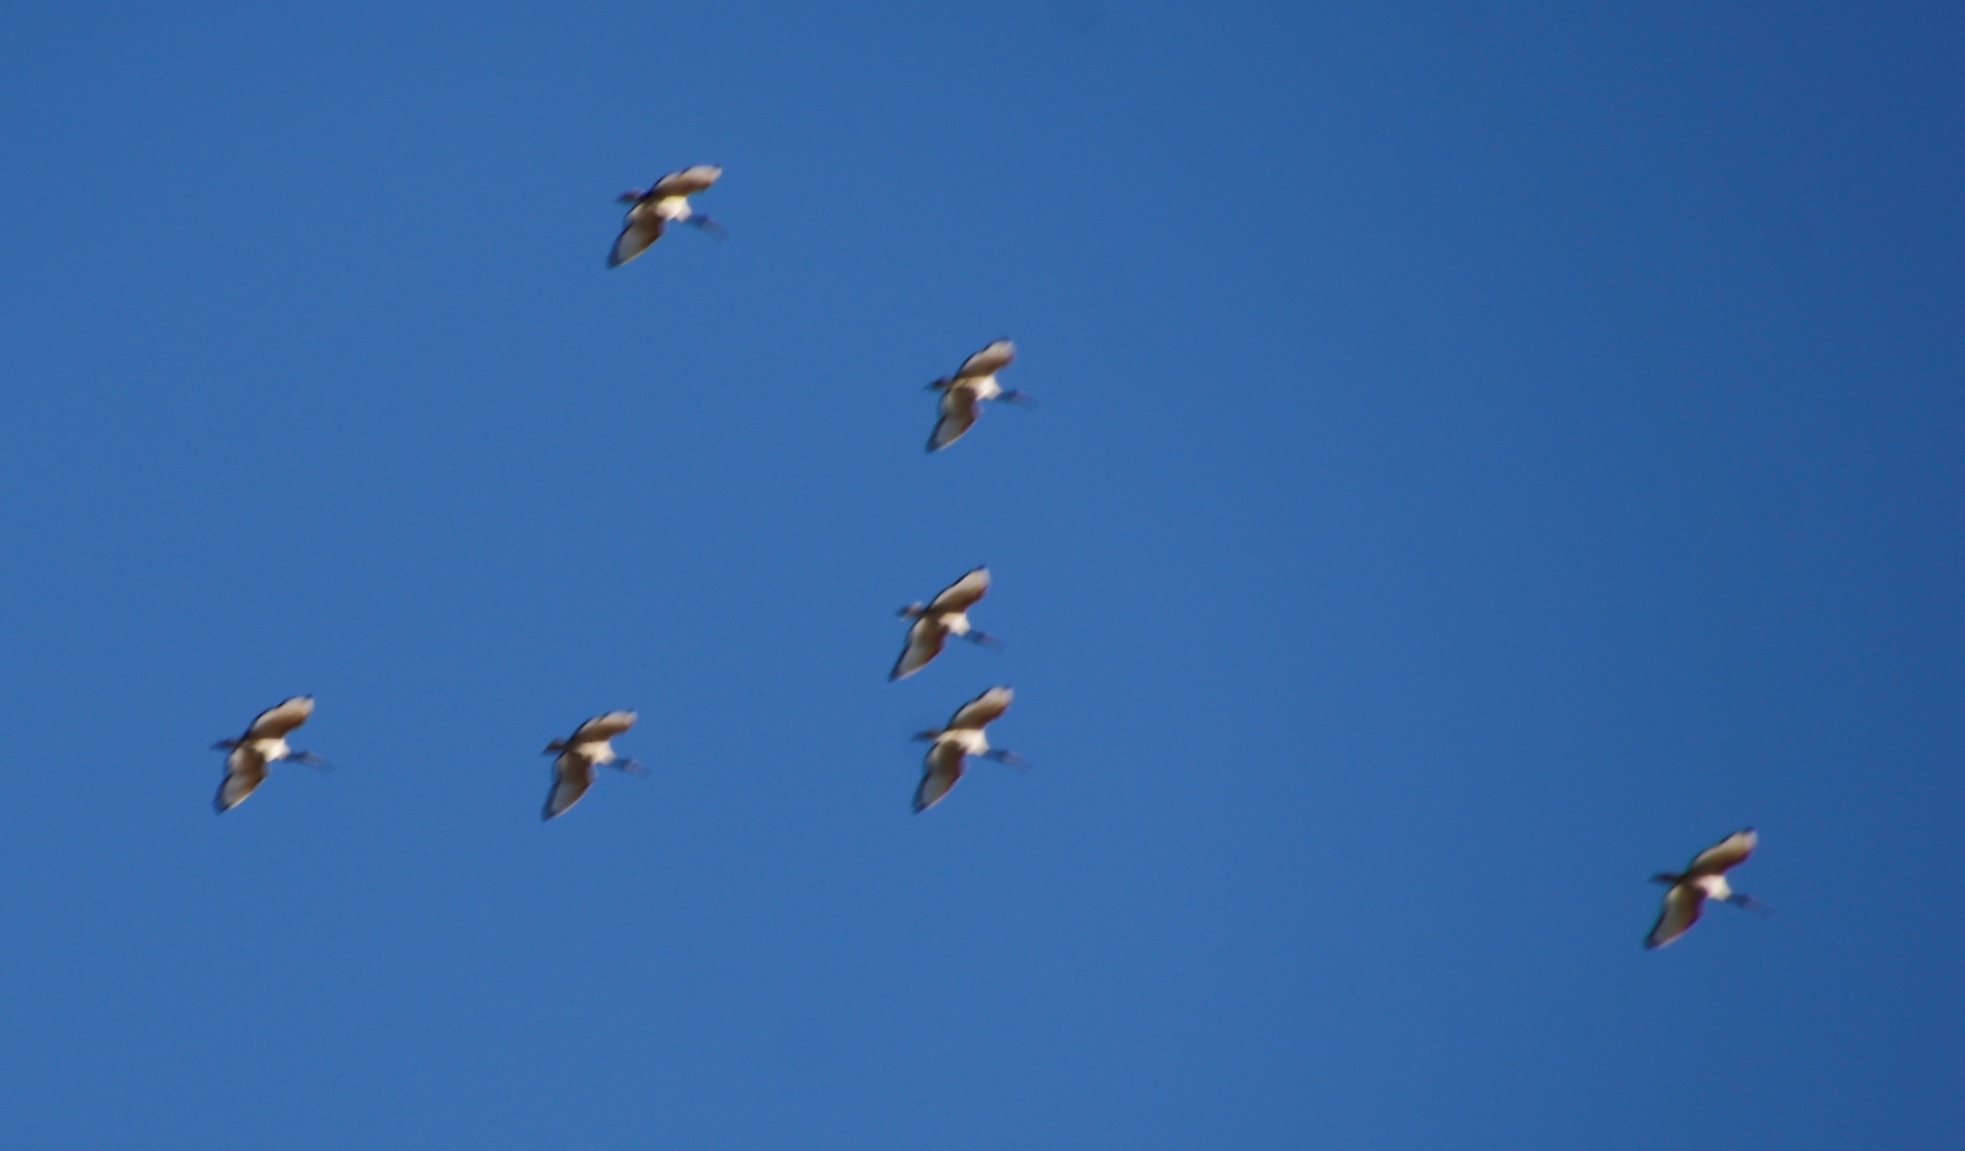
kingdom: Animalia
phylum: Chordata
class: Aves
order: Pelecaniformes
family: Threskiornithidae
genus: Threskiornis
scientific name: Threskiornis aethiopicus
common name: Sacred ibis
